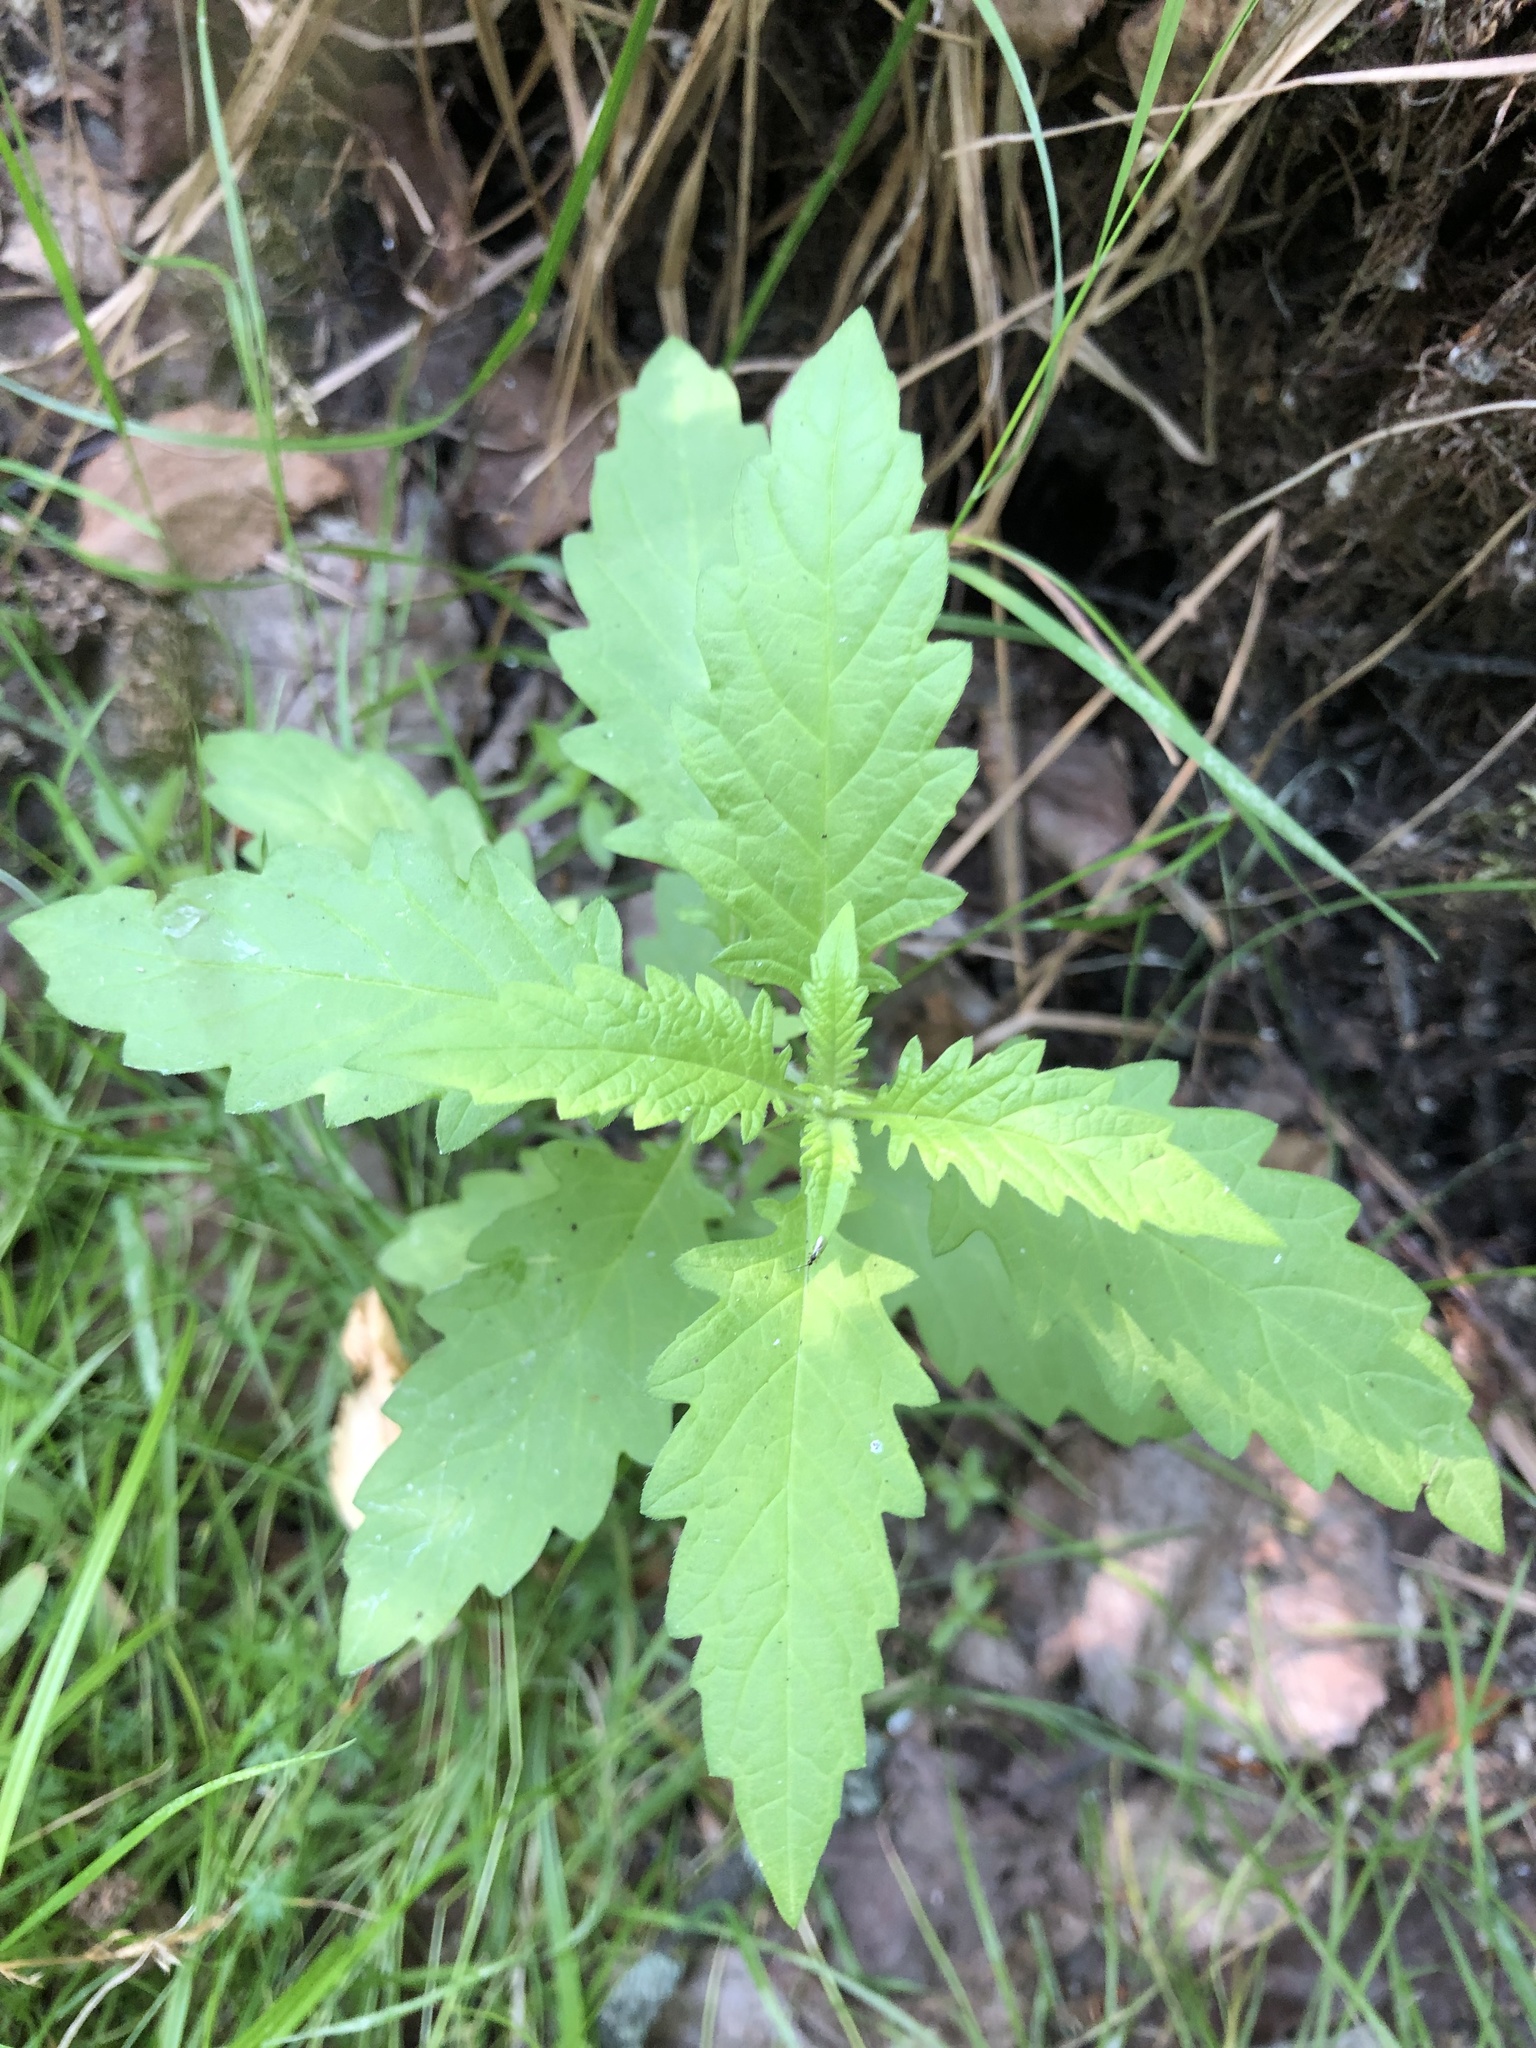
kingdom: Plantae
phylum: Tracheophyta
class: Magnoliopsida
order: Lamiales
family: Lamiaceae
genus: Lycopus
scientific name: Lycopus europaeus
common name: European bugleweed
